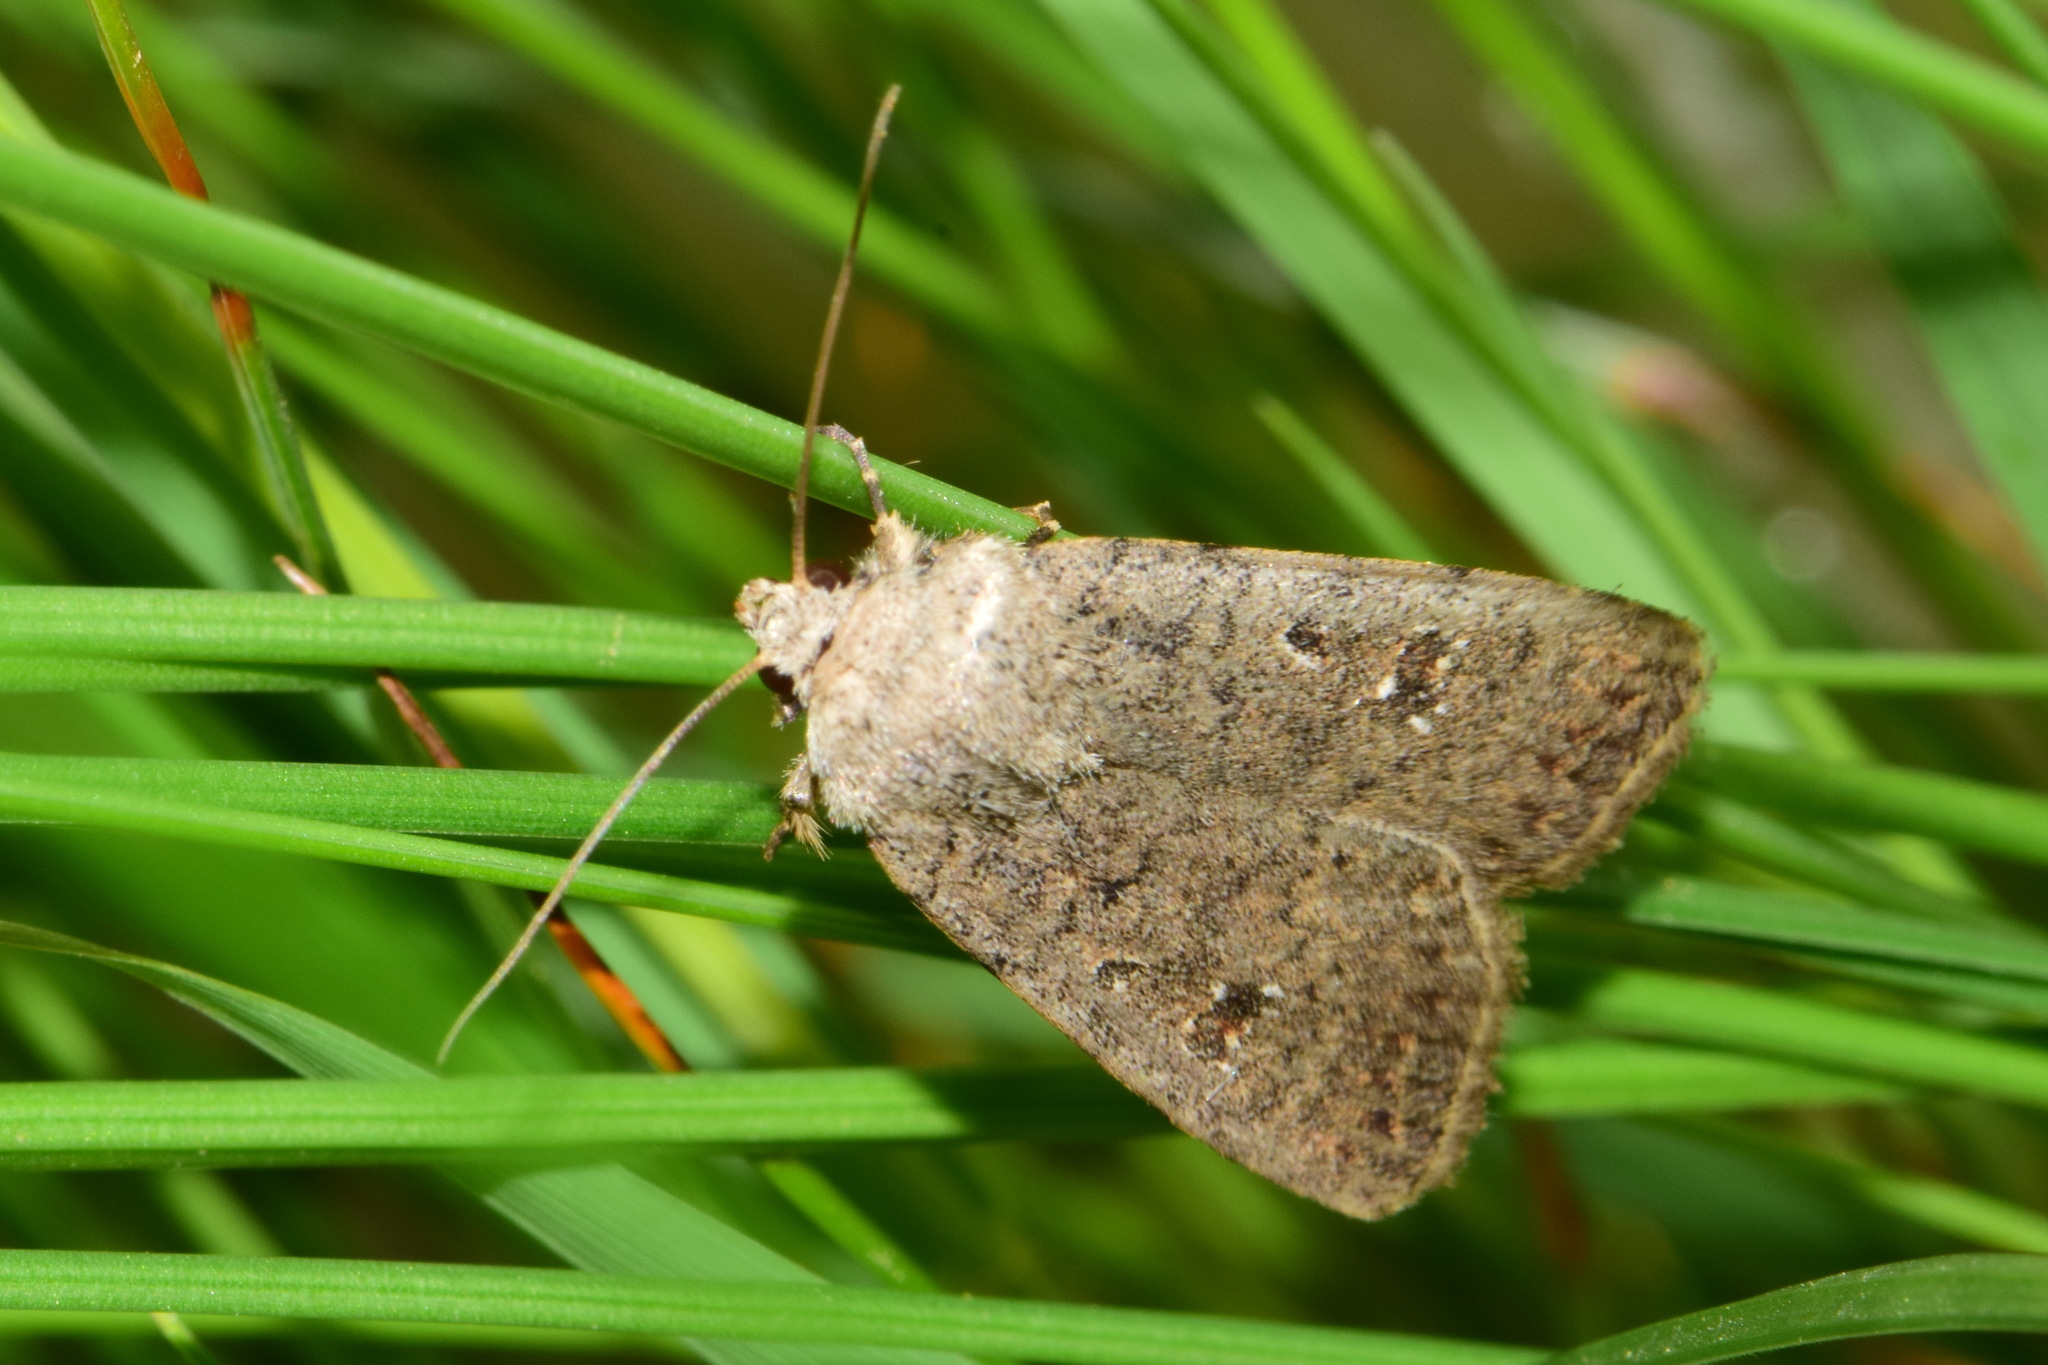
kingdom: Animalia
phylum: Arthropoda
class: Insecta
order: Lepidoptera
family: Noctuidae
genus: Caradrina
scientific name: Caradrina clavipalpis
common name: Pale mottled willow
